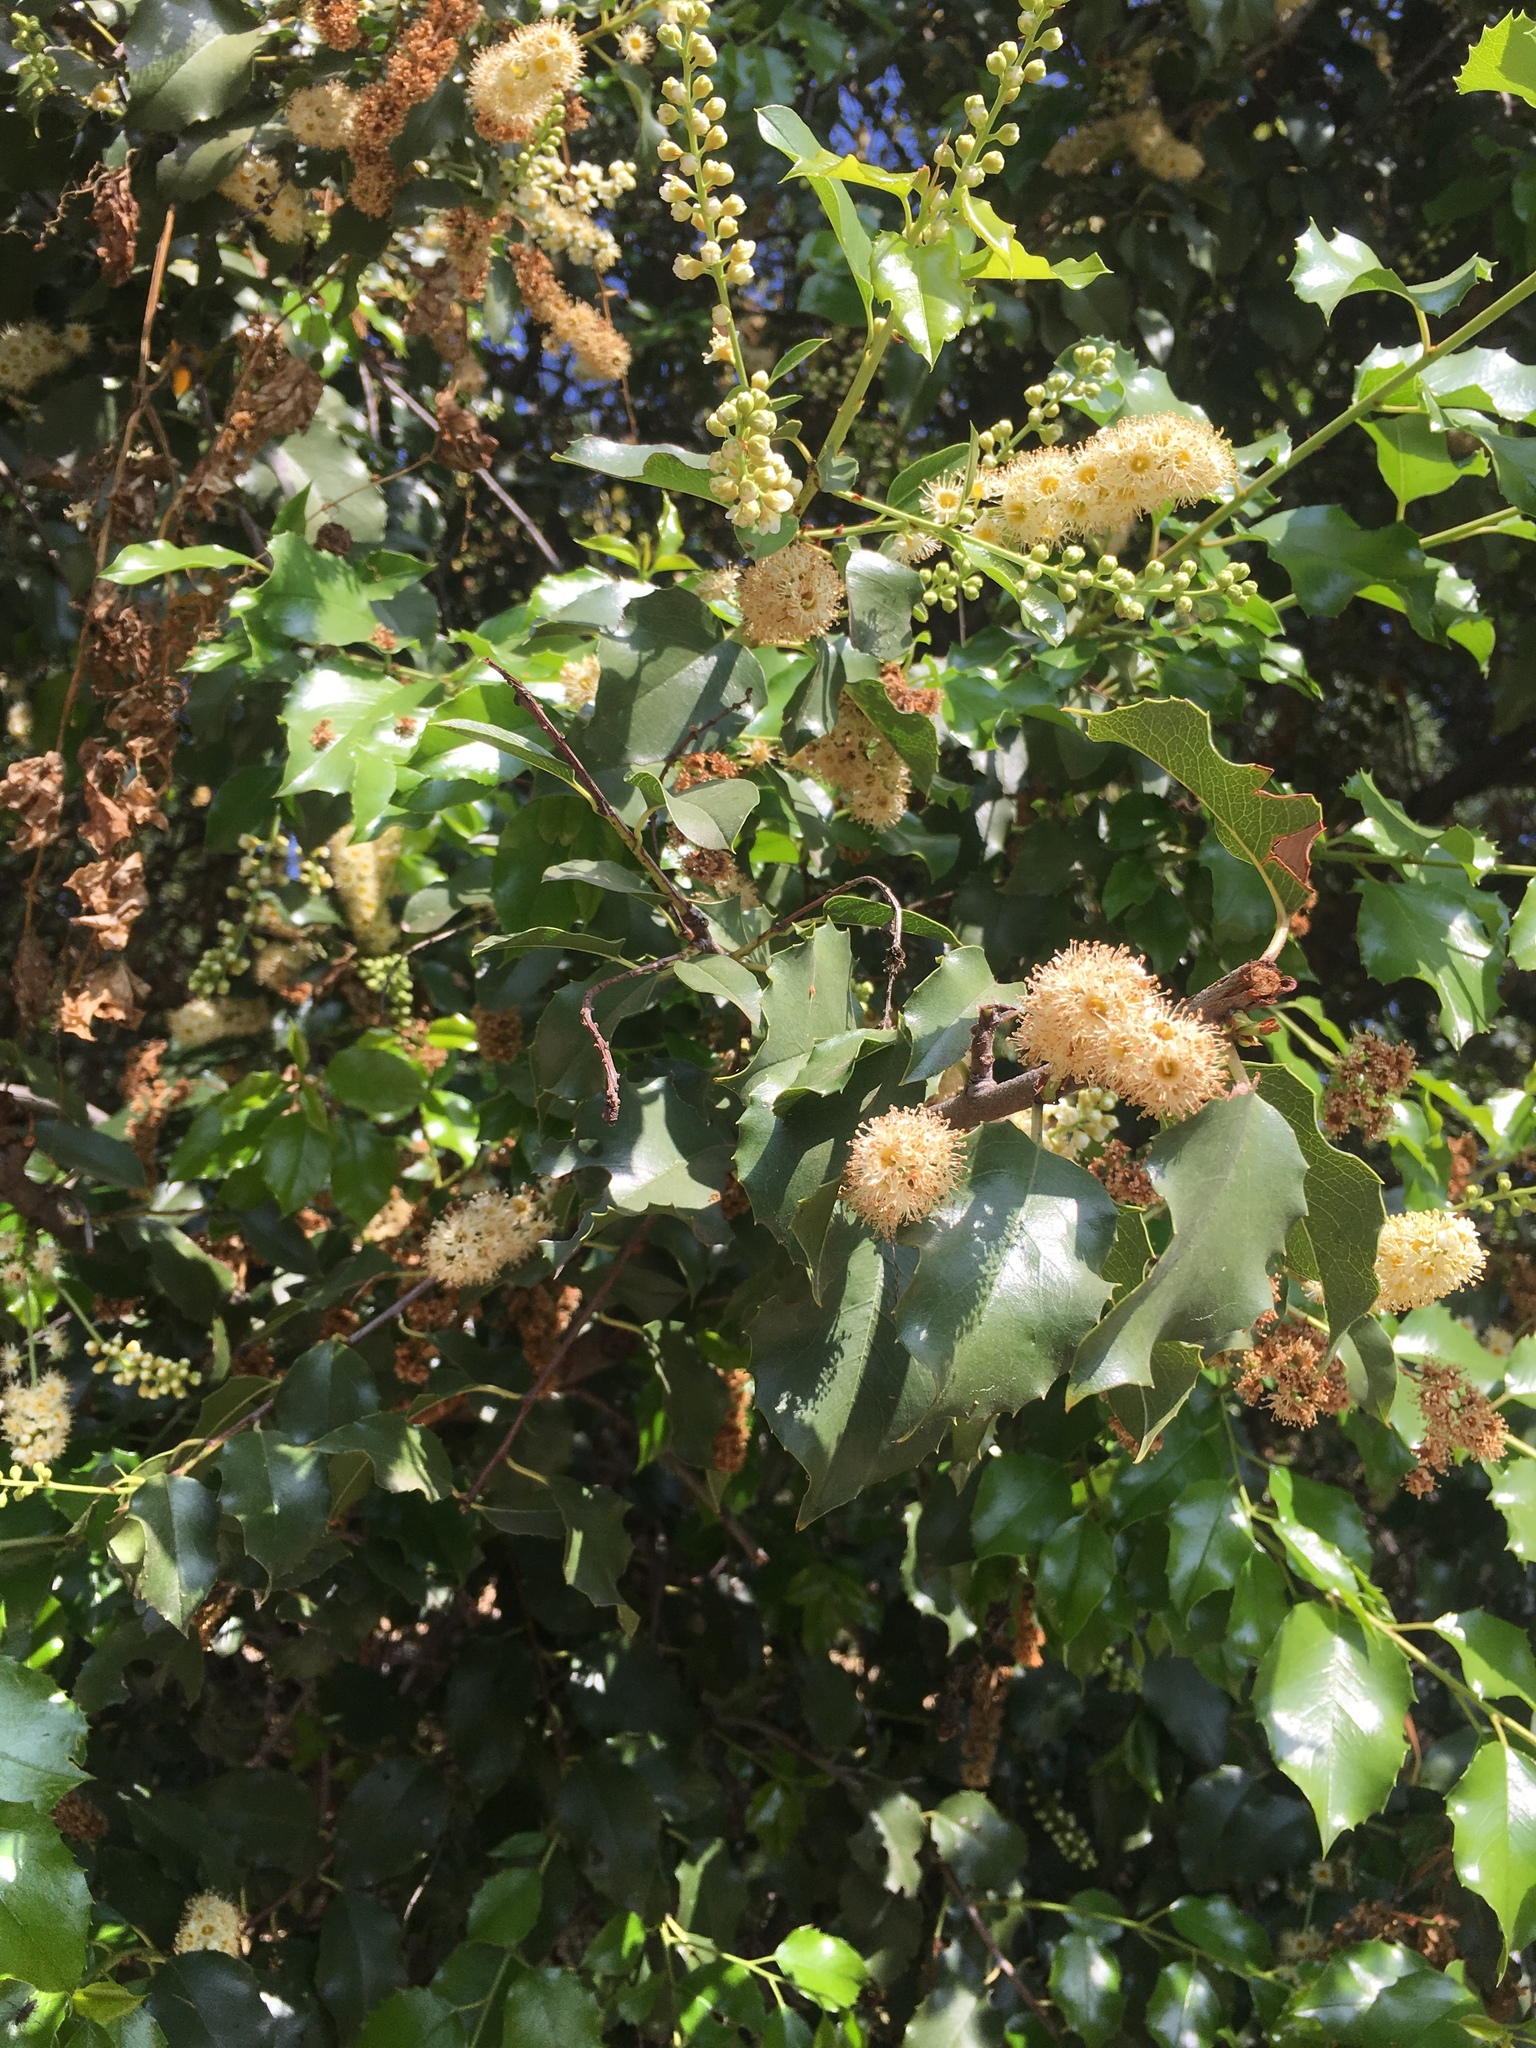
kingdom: Plantae
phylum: Tracheophyta
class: Magnoliopsida
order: Rosales
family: Rosaceae
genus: Prunus
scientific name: Prunus ilicifolia
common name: Hollyleaf cherry
